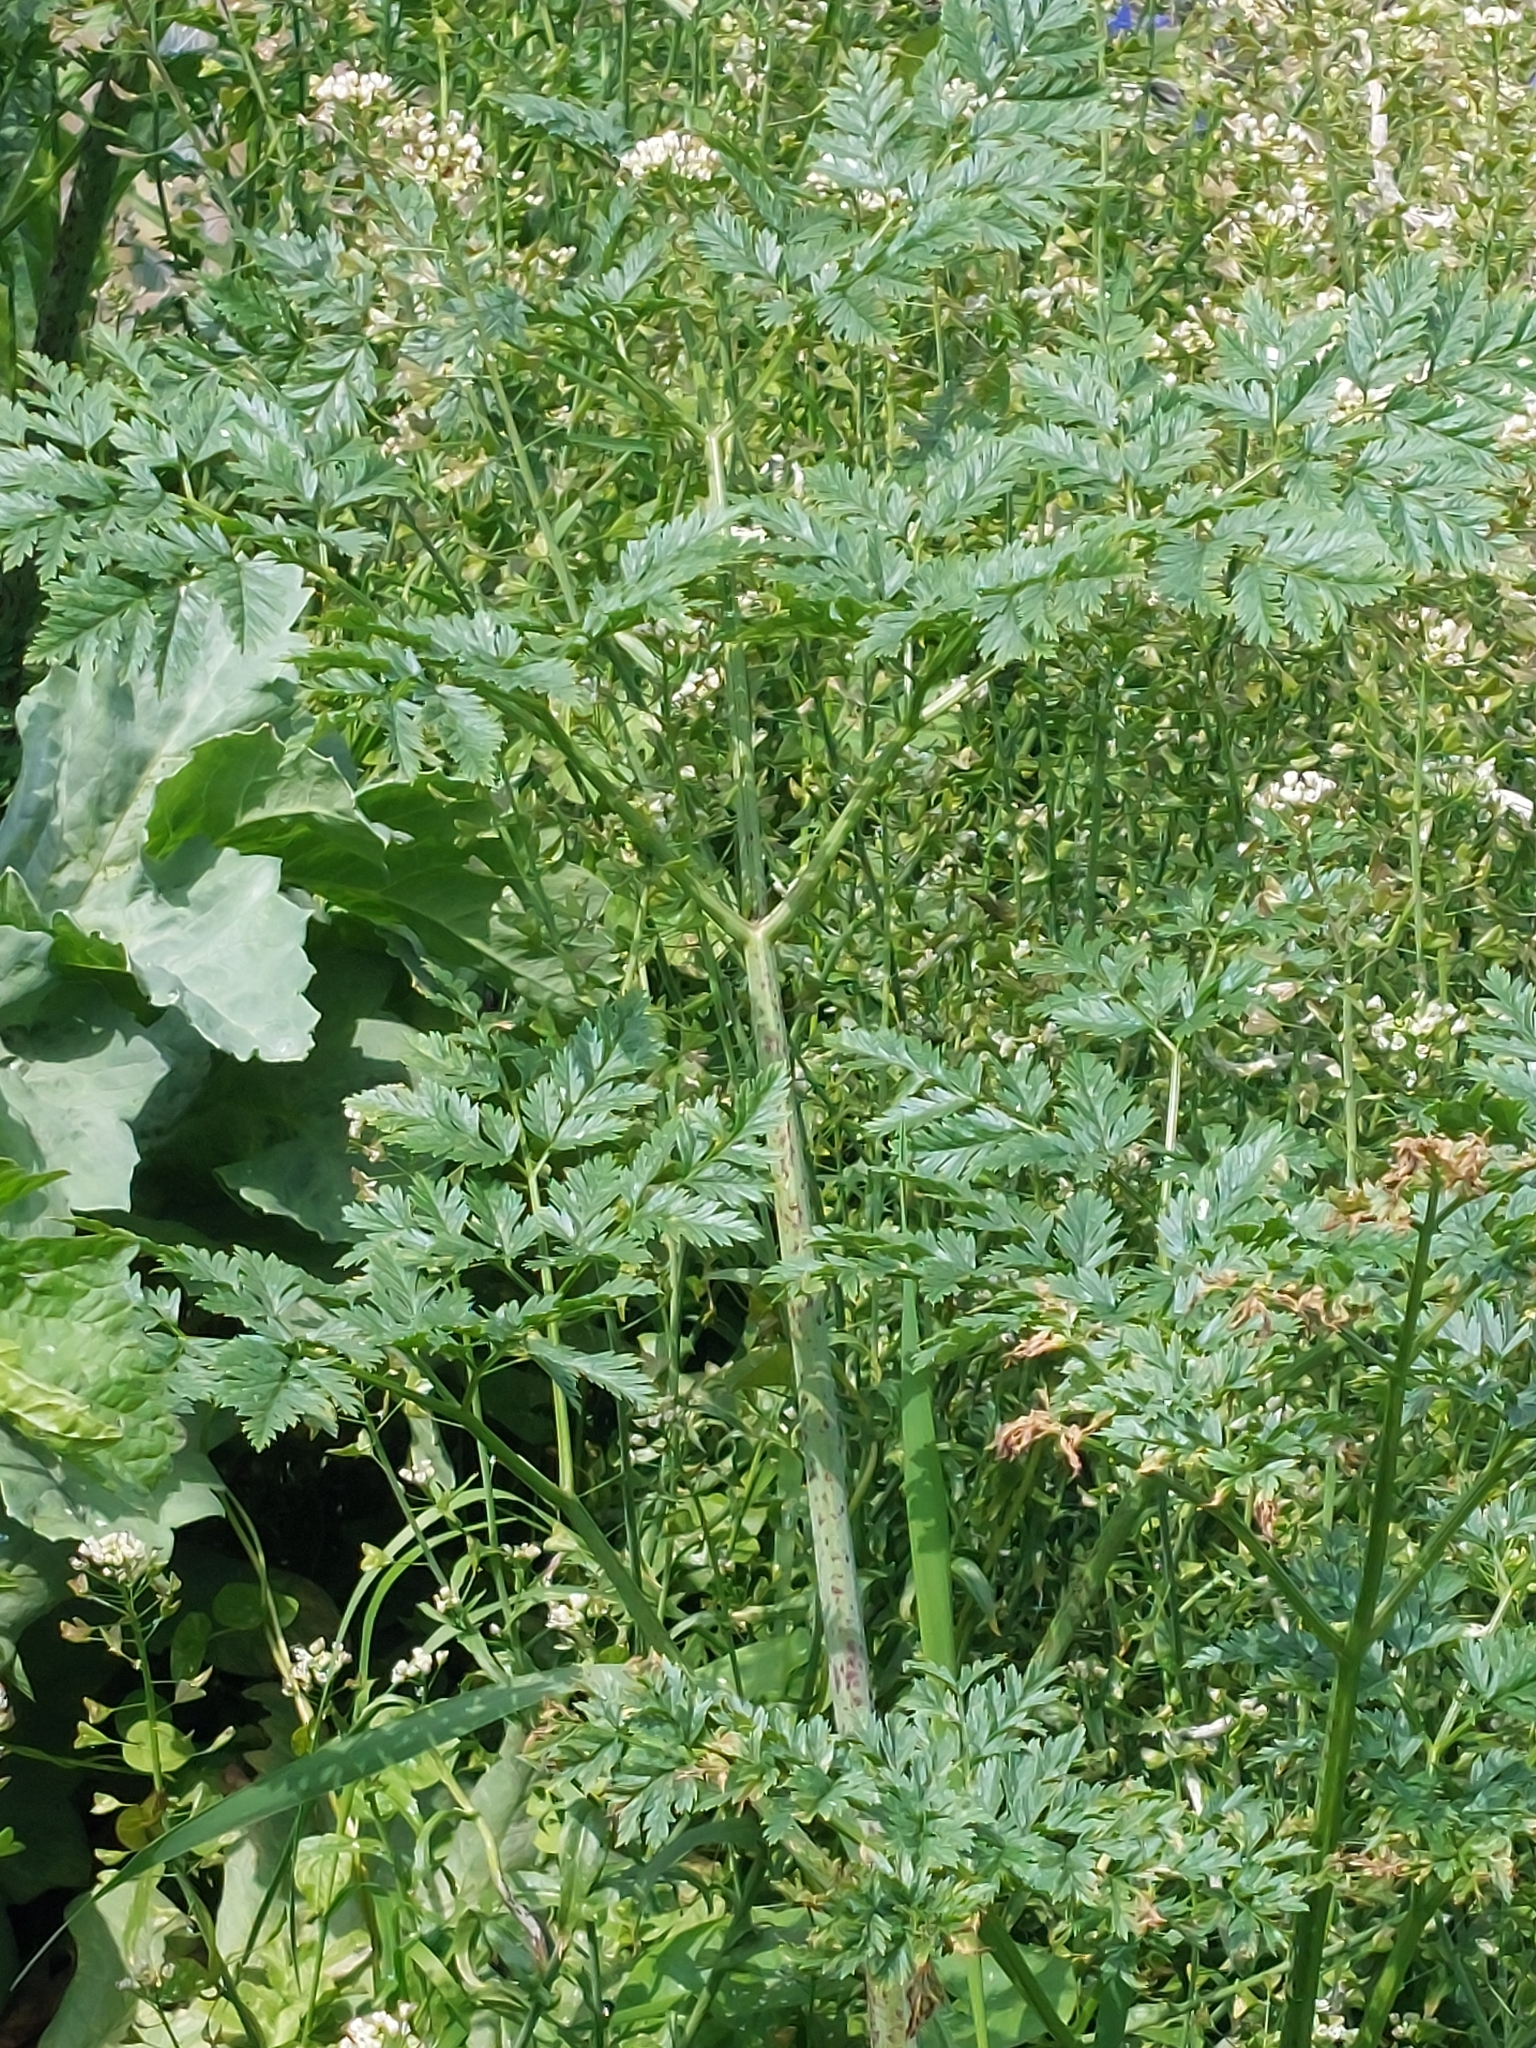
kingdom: Plantae
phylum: Tracheophyta
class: Magnoliopsida
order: Apiales
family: Apiaceae
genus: Conium
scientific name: Conium maculatum
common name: Hemlock
